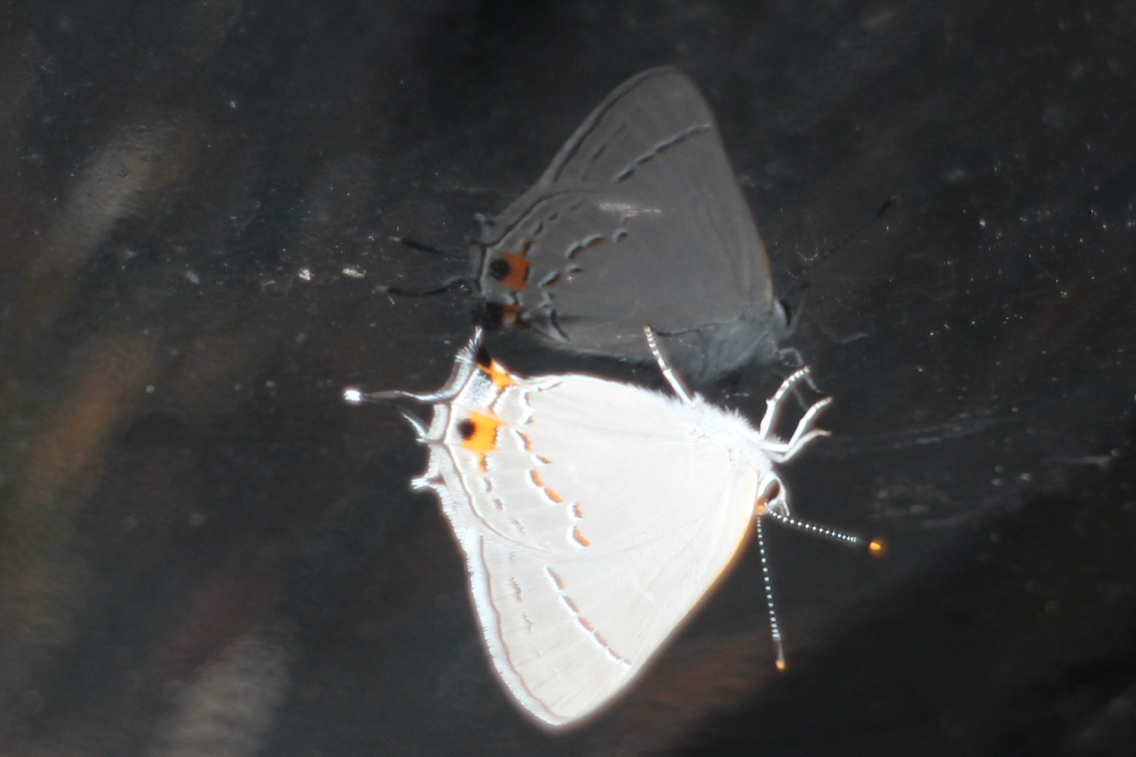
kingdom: Animalia
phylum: Arthropoda
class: Insecta
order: Lepidoptera
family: Lycaenidae
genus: Strymon
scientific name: Strymon melinus
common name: Gray hairstreak
